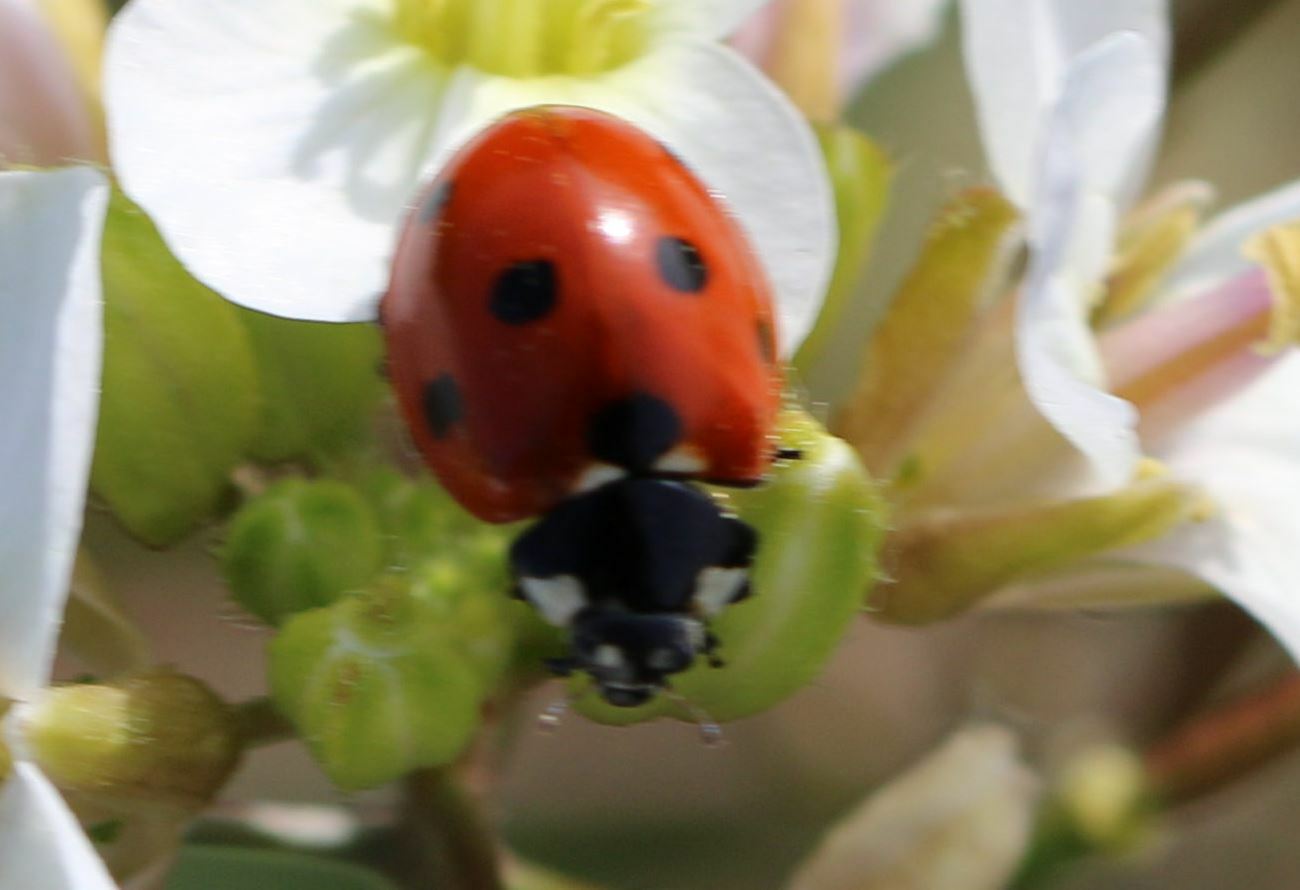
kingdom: Animalia
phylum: Arthropoda
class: Insecta
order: Coleoptera
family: Coccinellidae
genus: Coccinella
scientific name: Coccinella septempunctata
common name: Sevenspotted lady beetle
